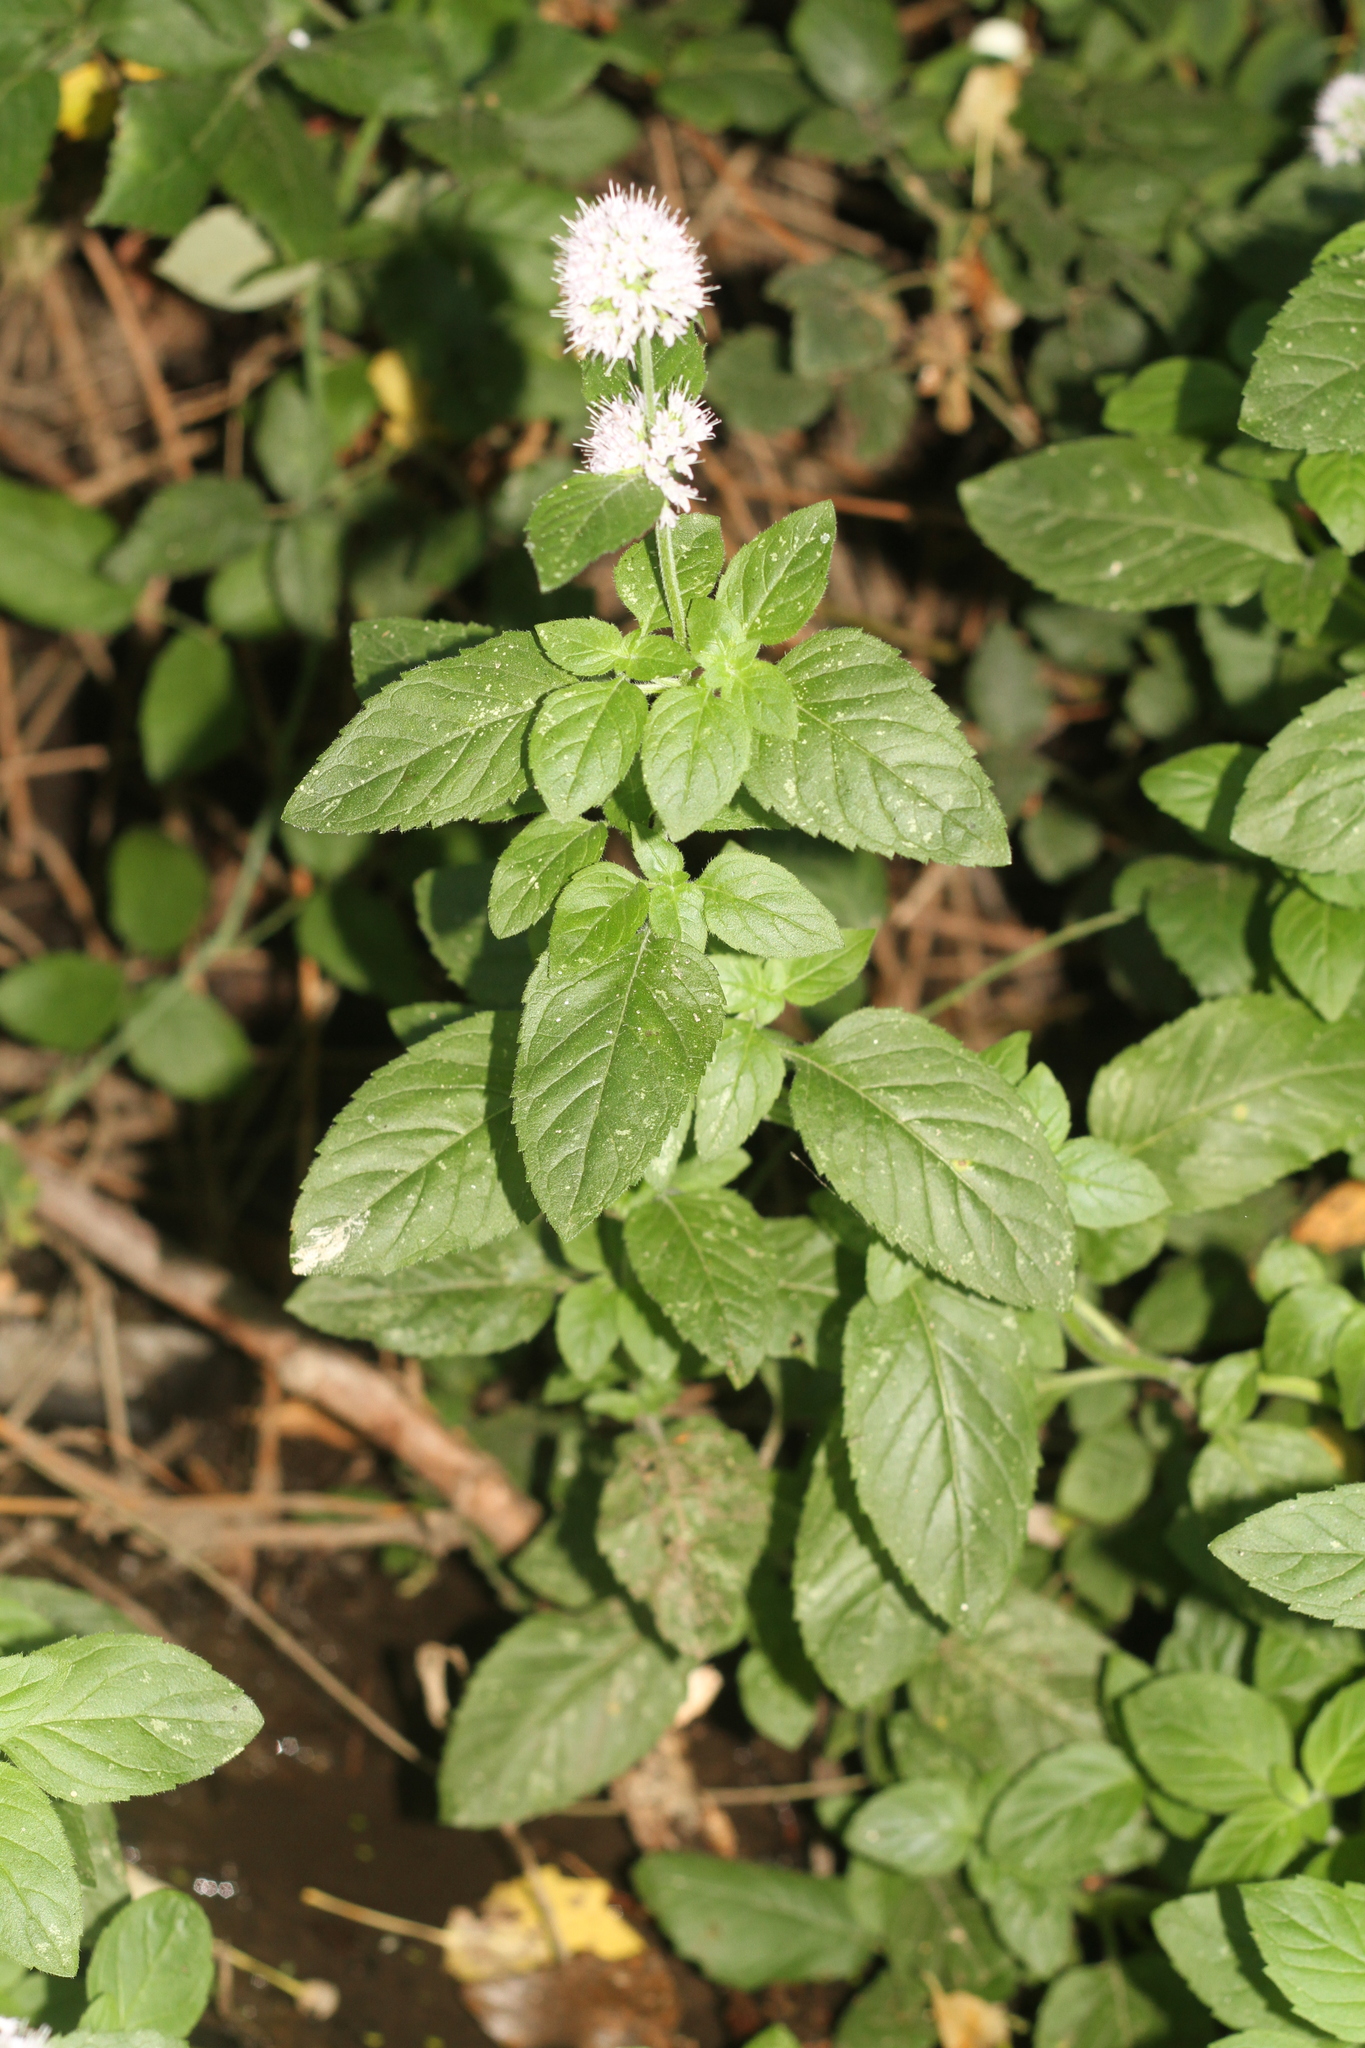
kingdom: Plantae
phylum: Tracheophyta
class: Magnoliopsida
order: Lamiales
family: Lamiaceae
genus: Mentha
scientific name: Mentha aquatica
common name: Water mint
